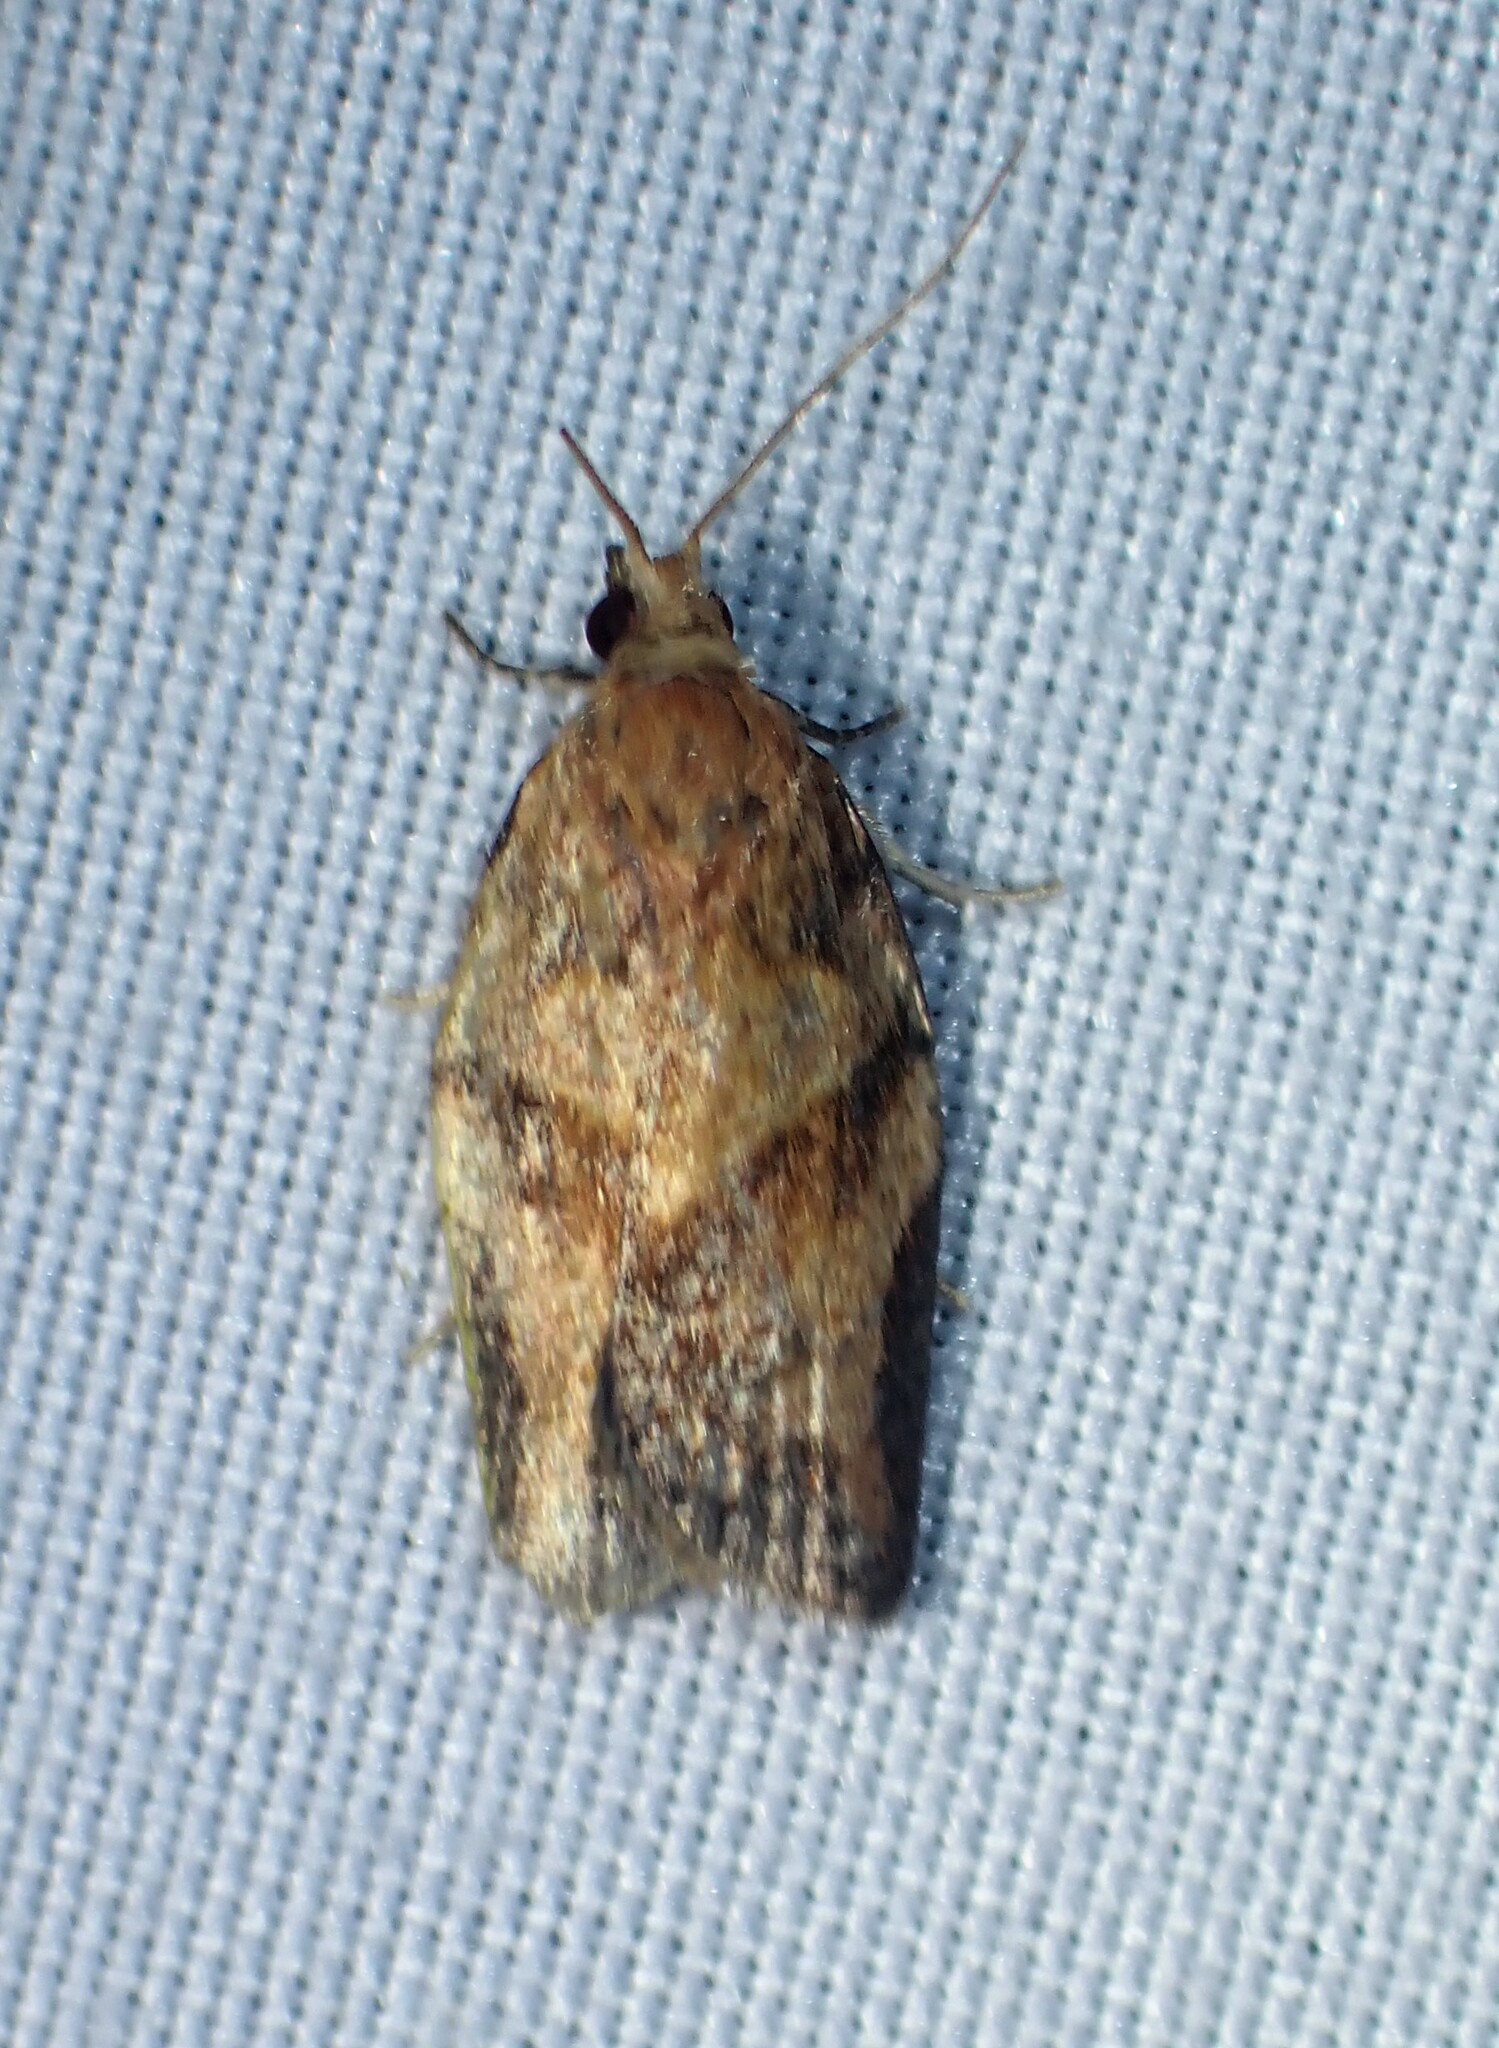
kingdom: Animalia
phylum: Arthropoda
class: Insecta
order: Lepidoptera
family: Tortricidae
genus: Epiphyas
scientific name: Epiphyas postvittana
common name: Light brown apple moth
